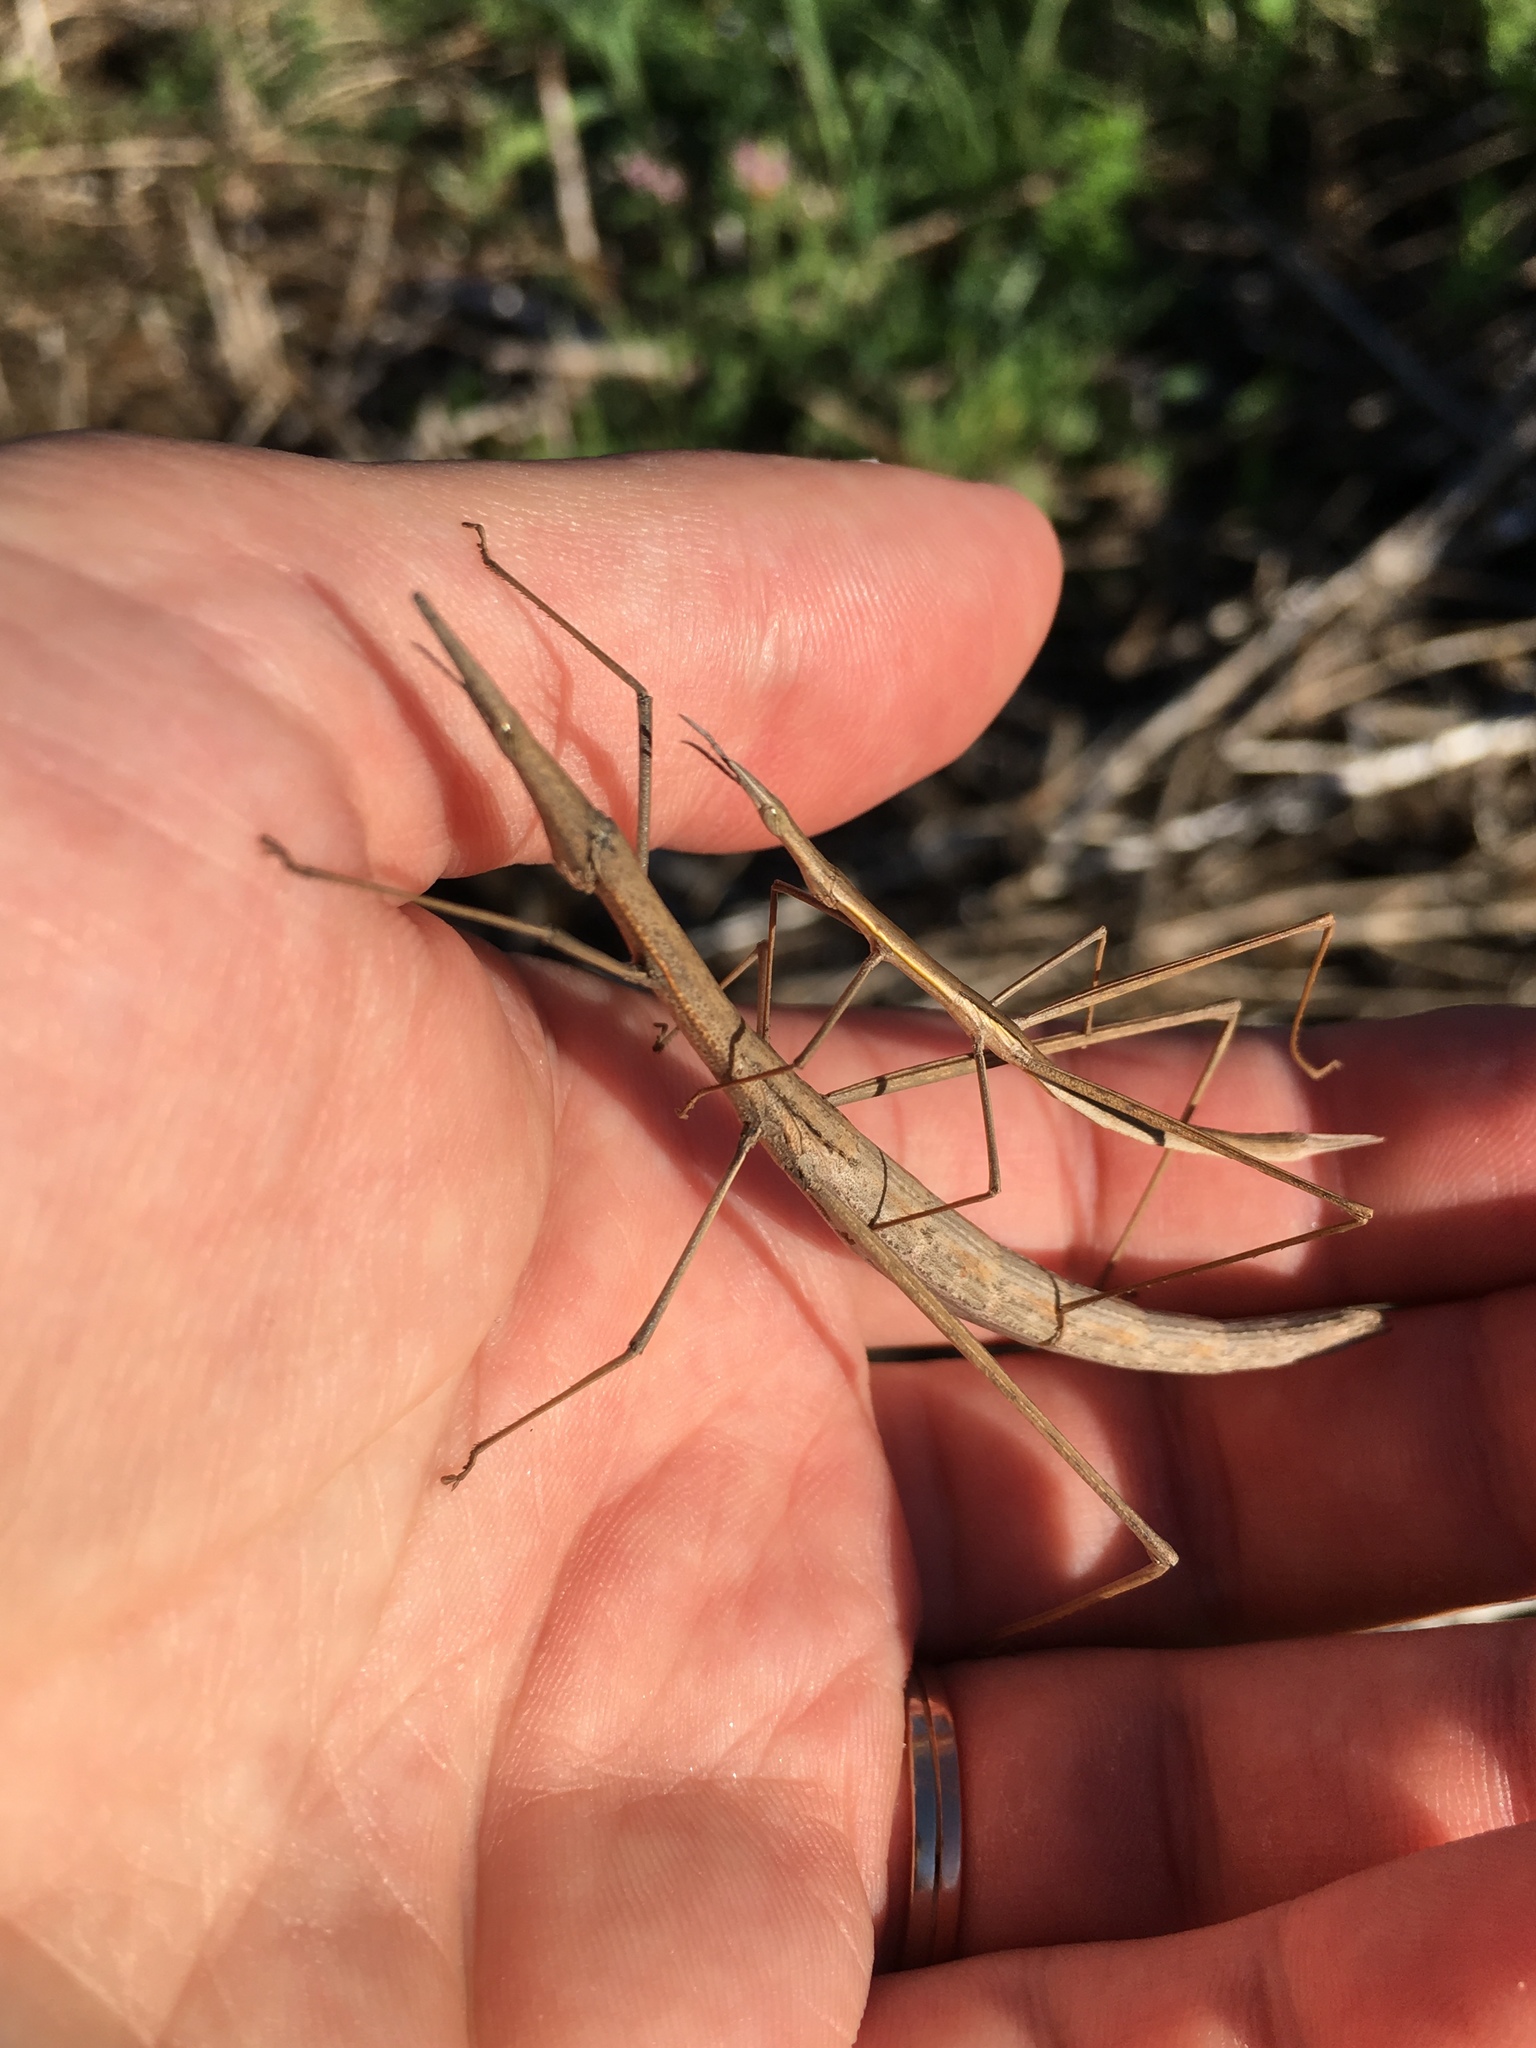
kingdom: Animalia
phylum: Arthropoda
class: Insecta
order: Orthoptera
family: Proscopiidae
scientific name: Proscopiidae
